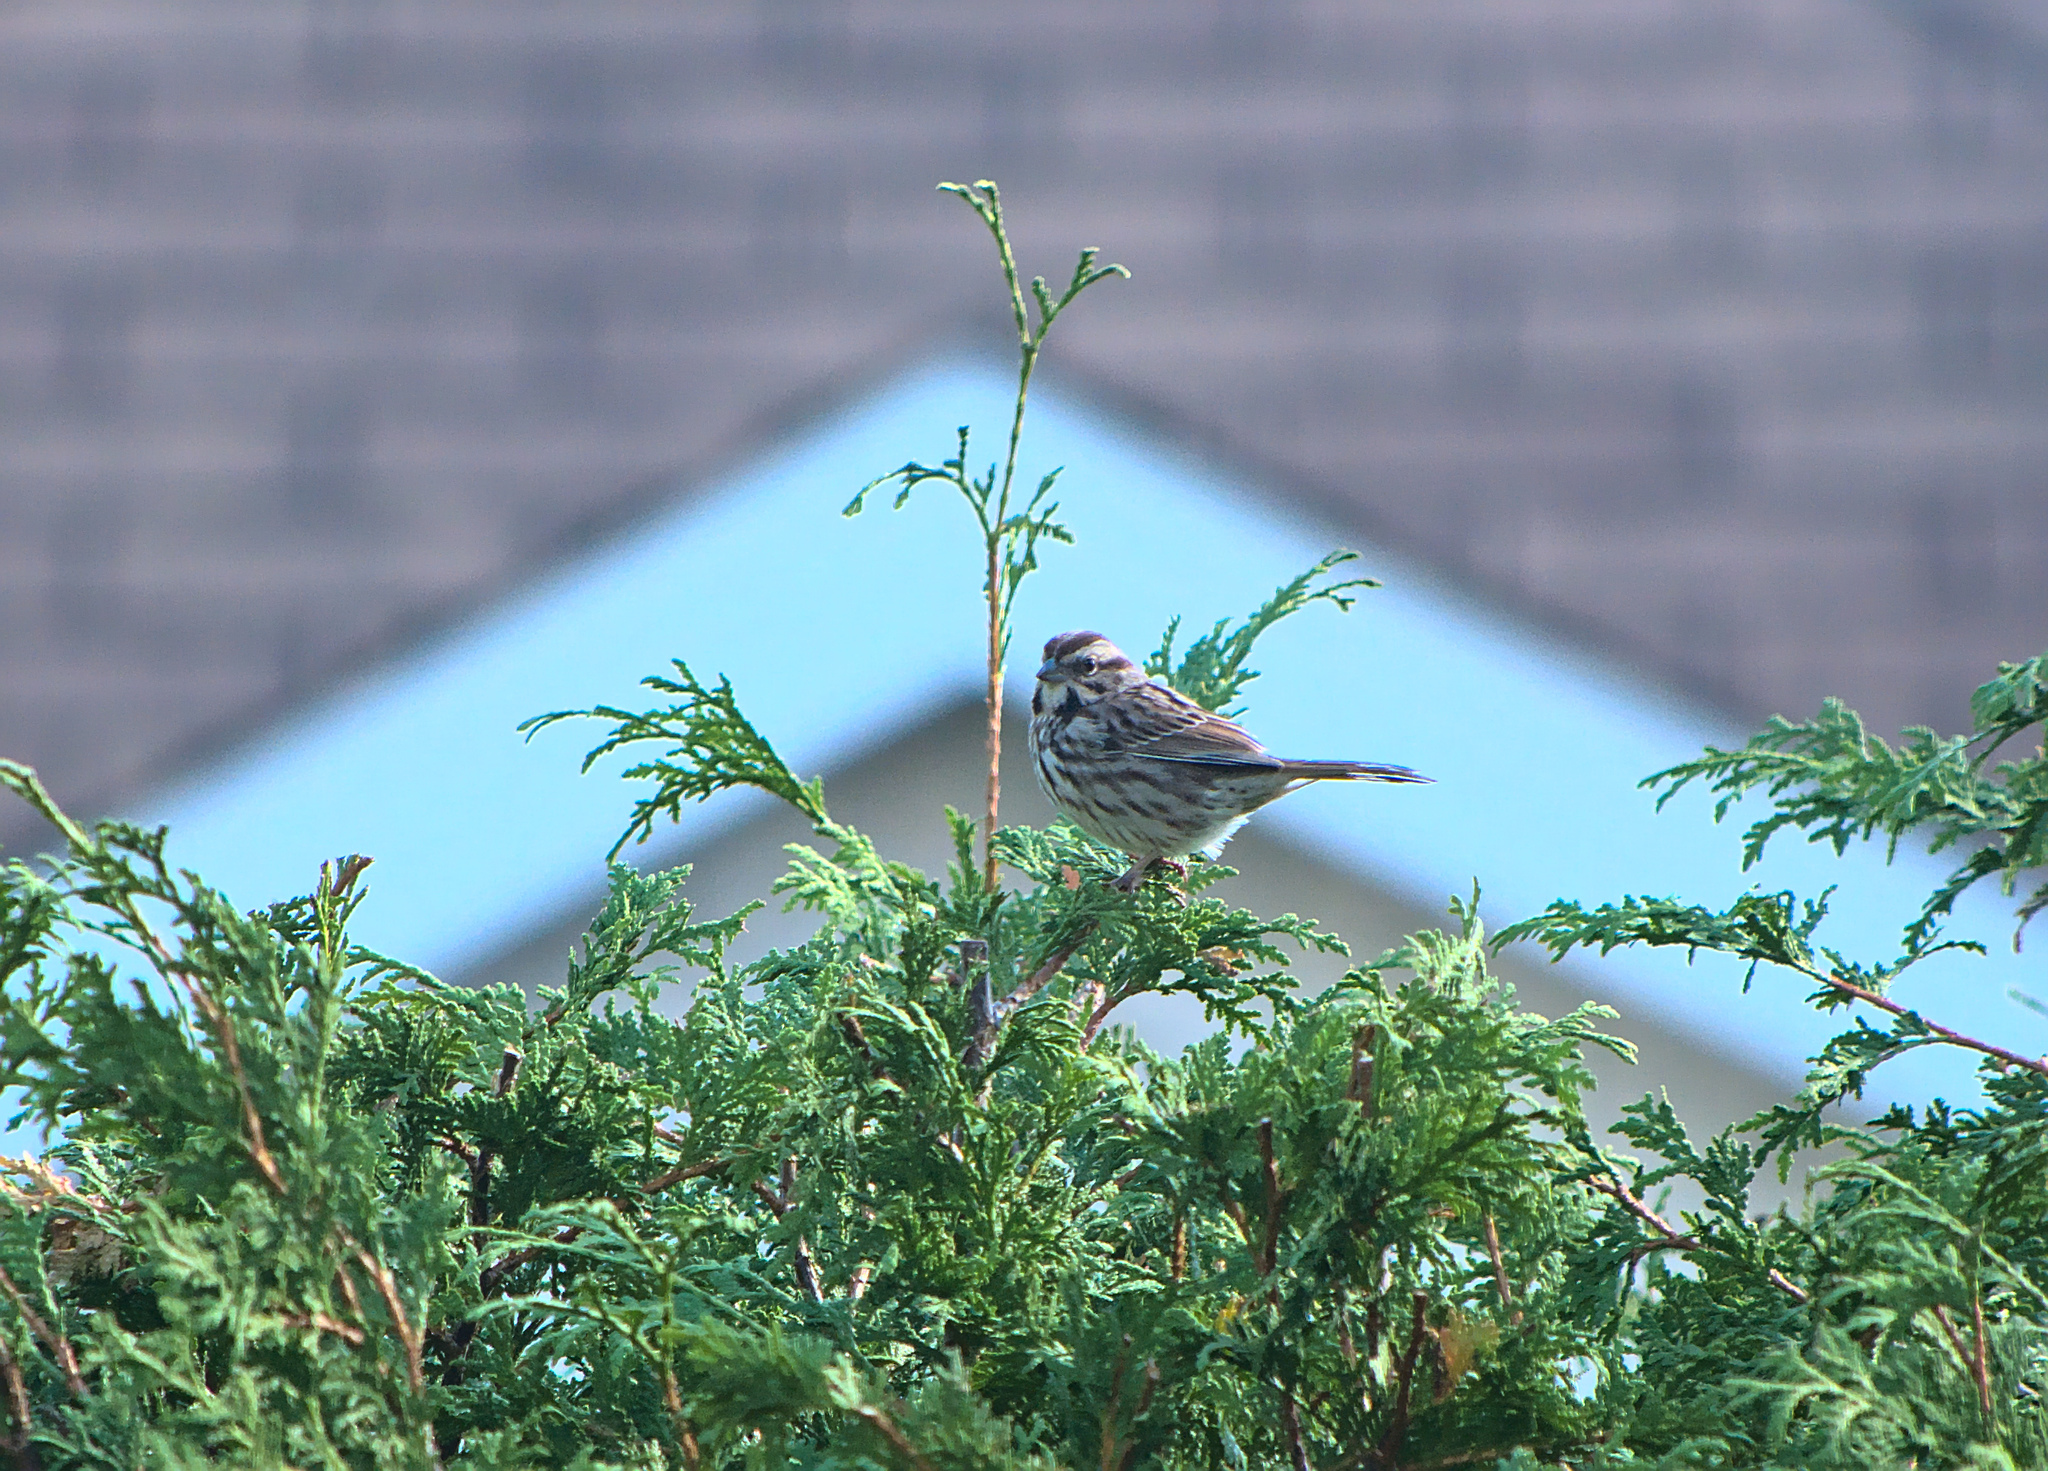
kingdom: Animalia
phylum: Chordata
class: Aves
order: Passeriformes
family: Passerellidae
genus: Melospiza
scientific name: Melospiza melodia
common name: Song sparrow
